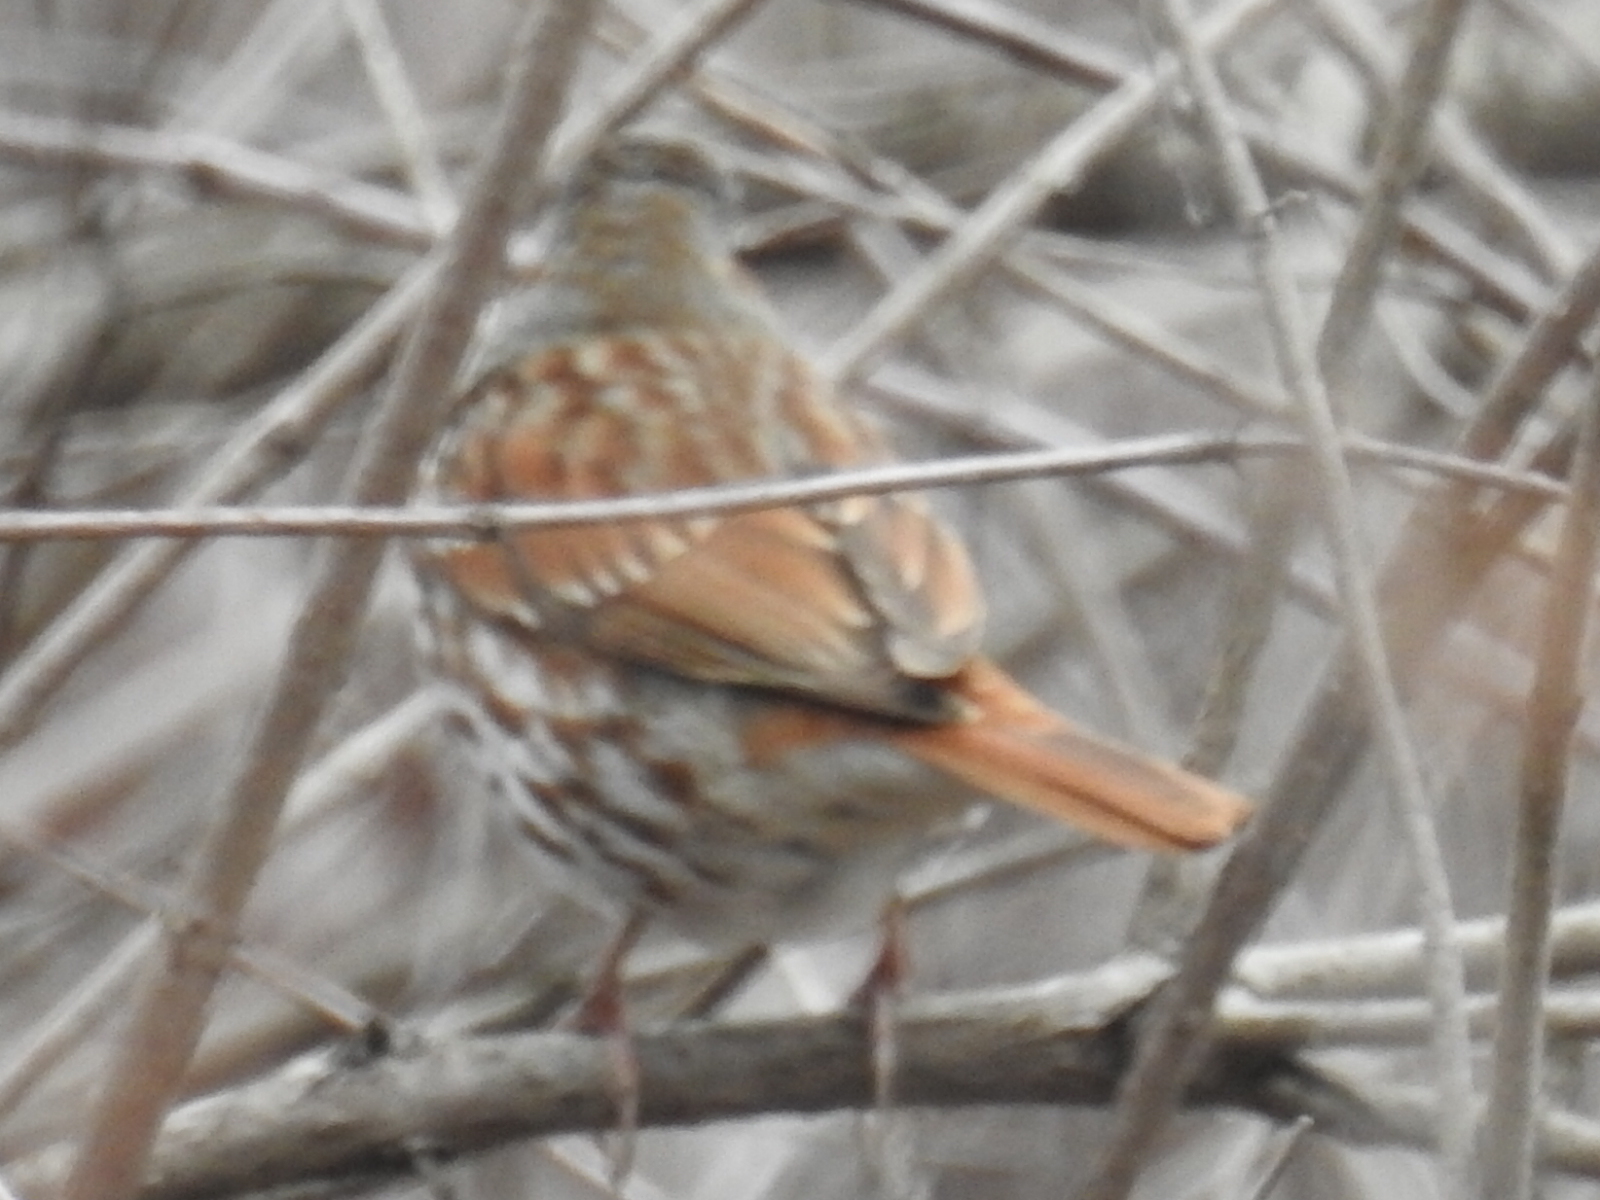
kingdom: Animalia
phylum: Chordata
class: Aves
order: Passeriformes
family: Passerellidae
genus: Passerella
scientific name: Passerella iliaca
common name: Fox sparrow
